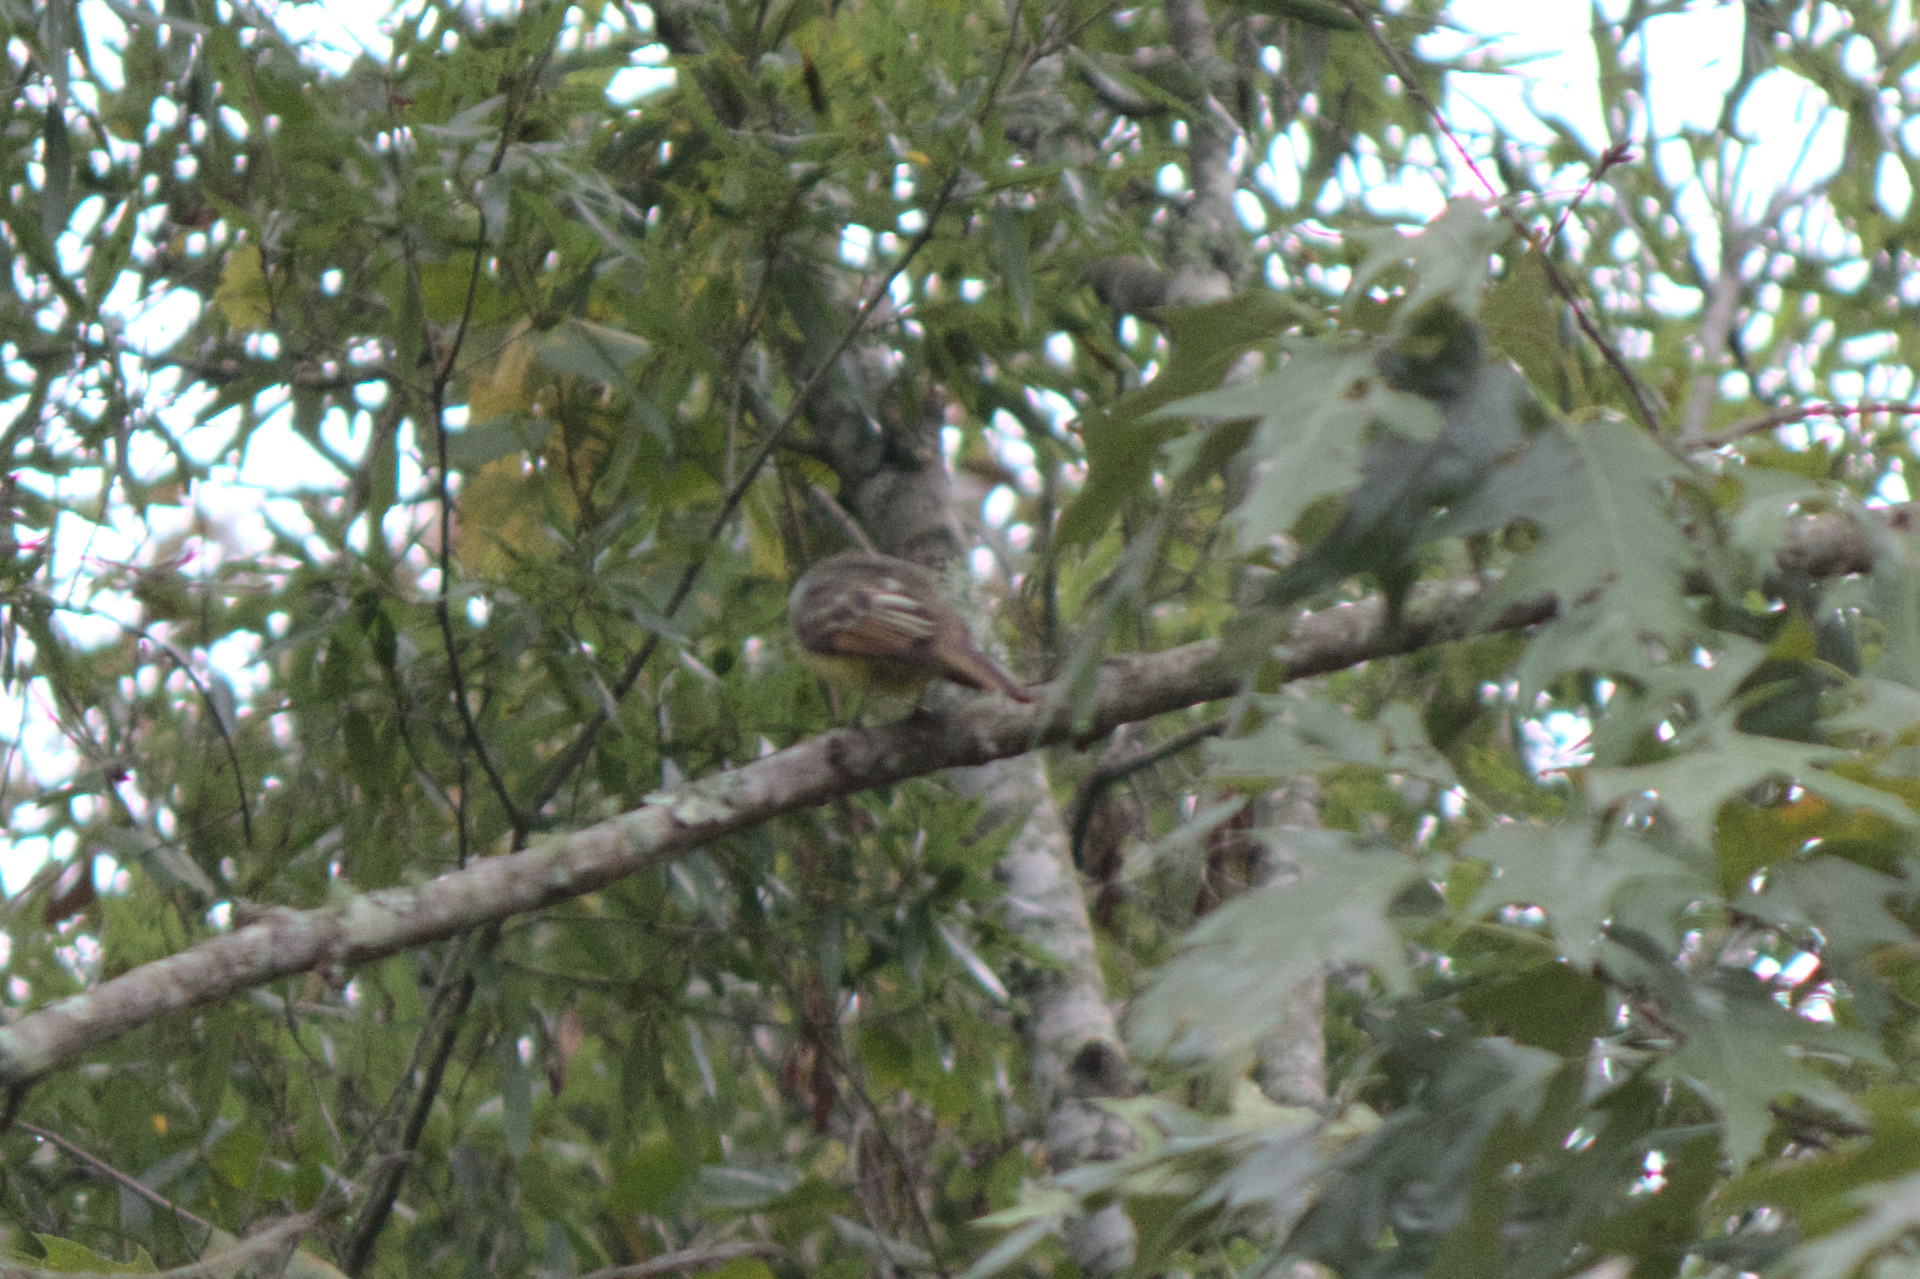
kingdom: Animalia
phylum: Chordata
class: Aves
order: Passeriformes
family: Tyrannidae
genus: Myiarchus
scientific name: Myiarchus crinitus
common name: Great crested flycatcher
